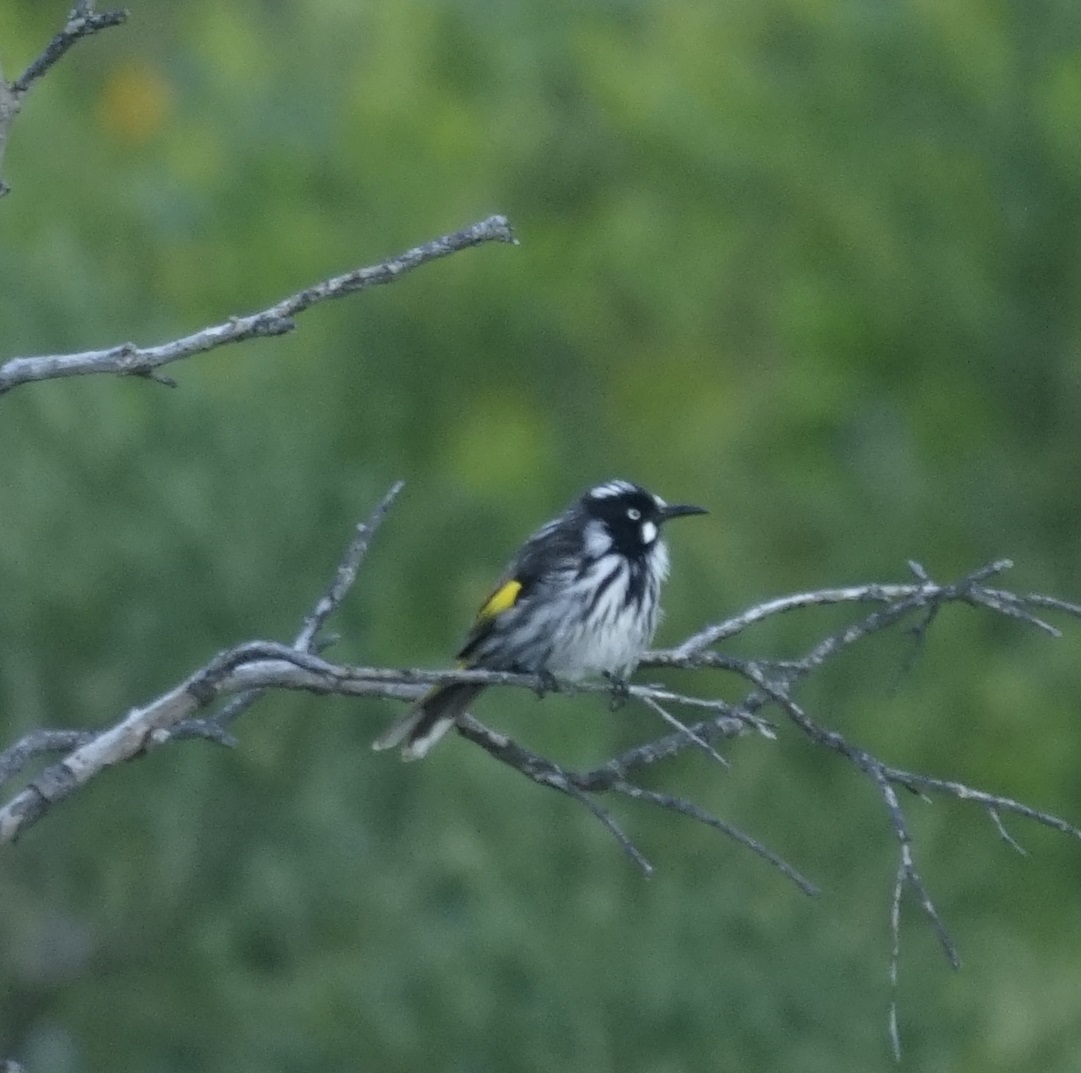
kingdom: Animalia
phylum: Chordata
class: Aves
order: Passeriformes
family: Meliphagidae
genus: Phylidonyris
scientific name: Phylidonyris novaehollandiae
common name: New holland honeyeater
